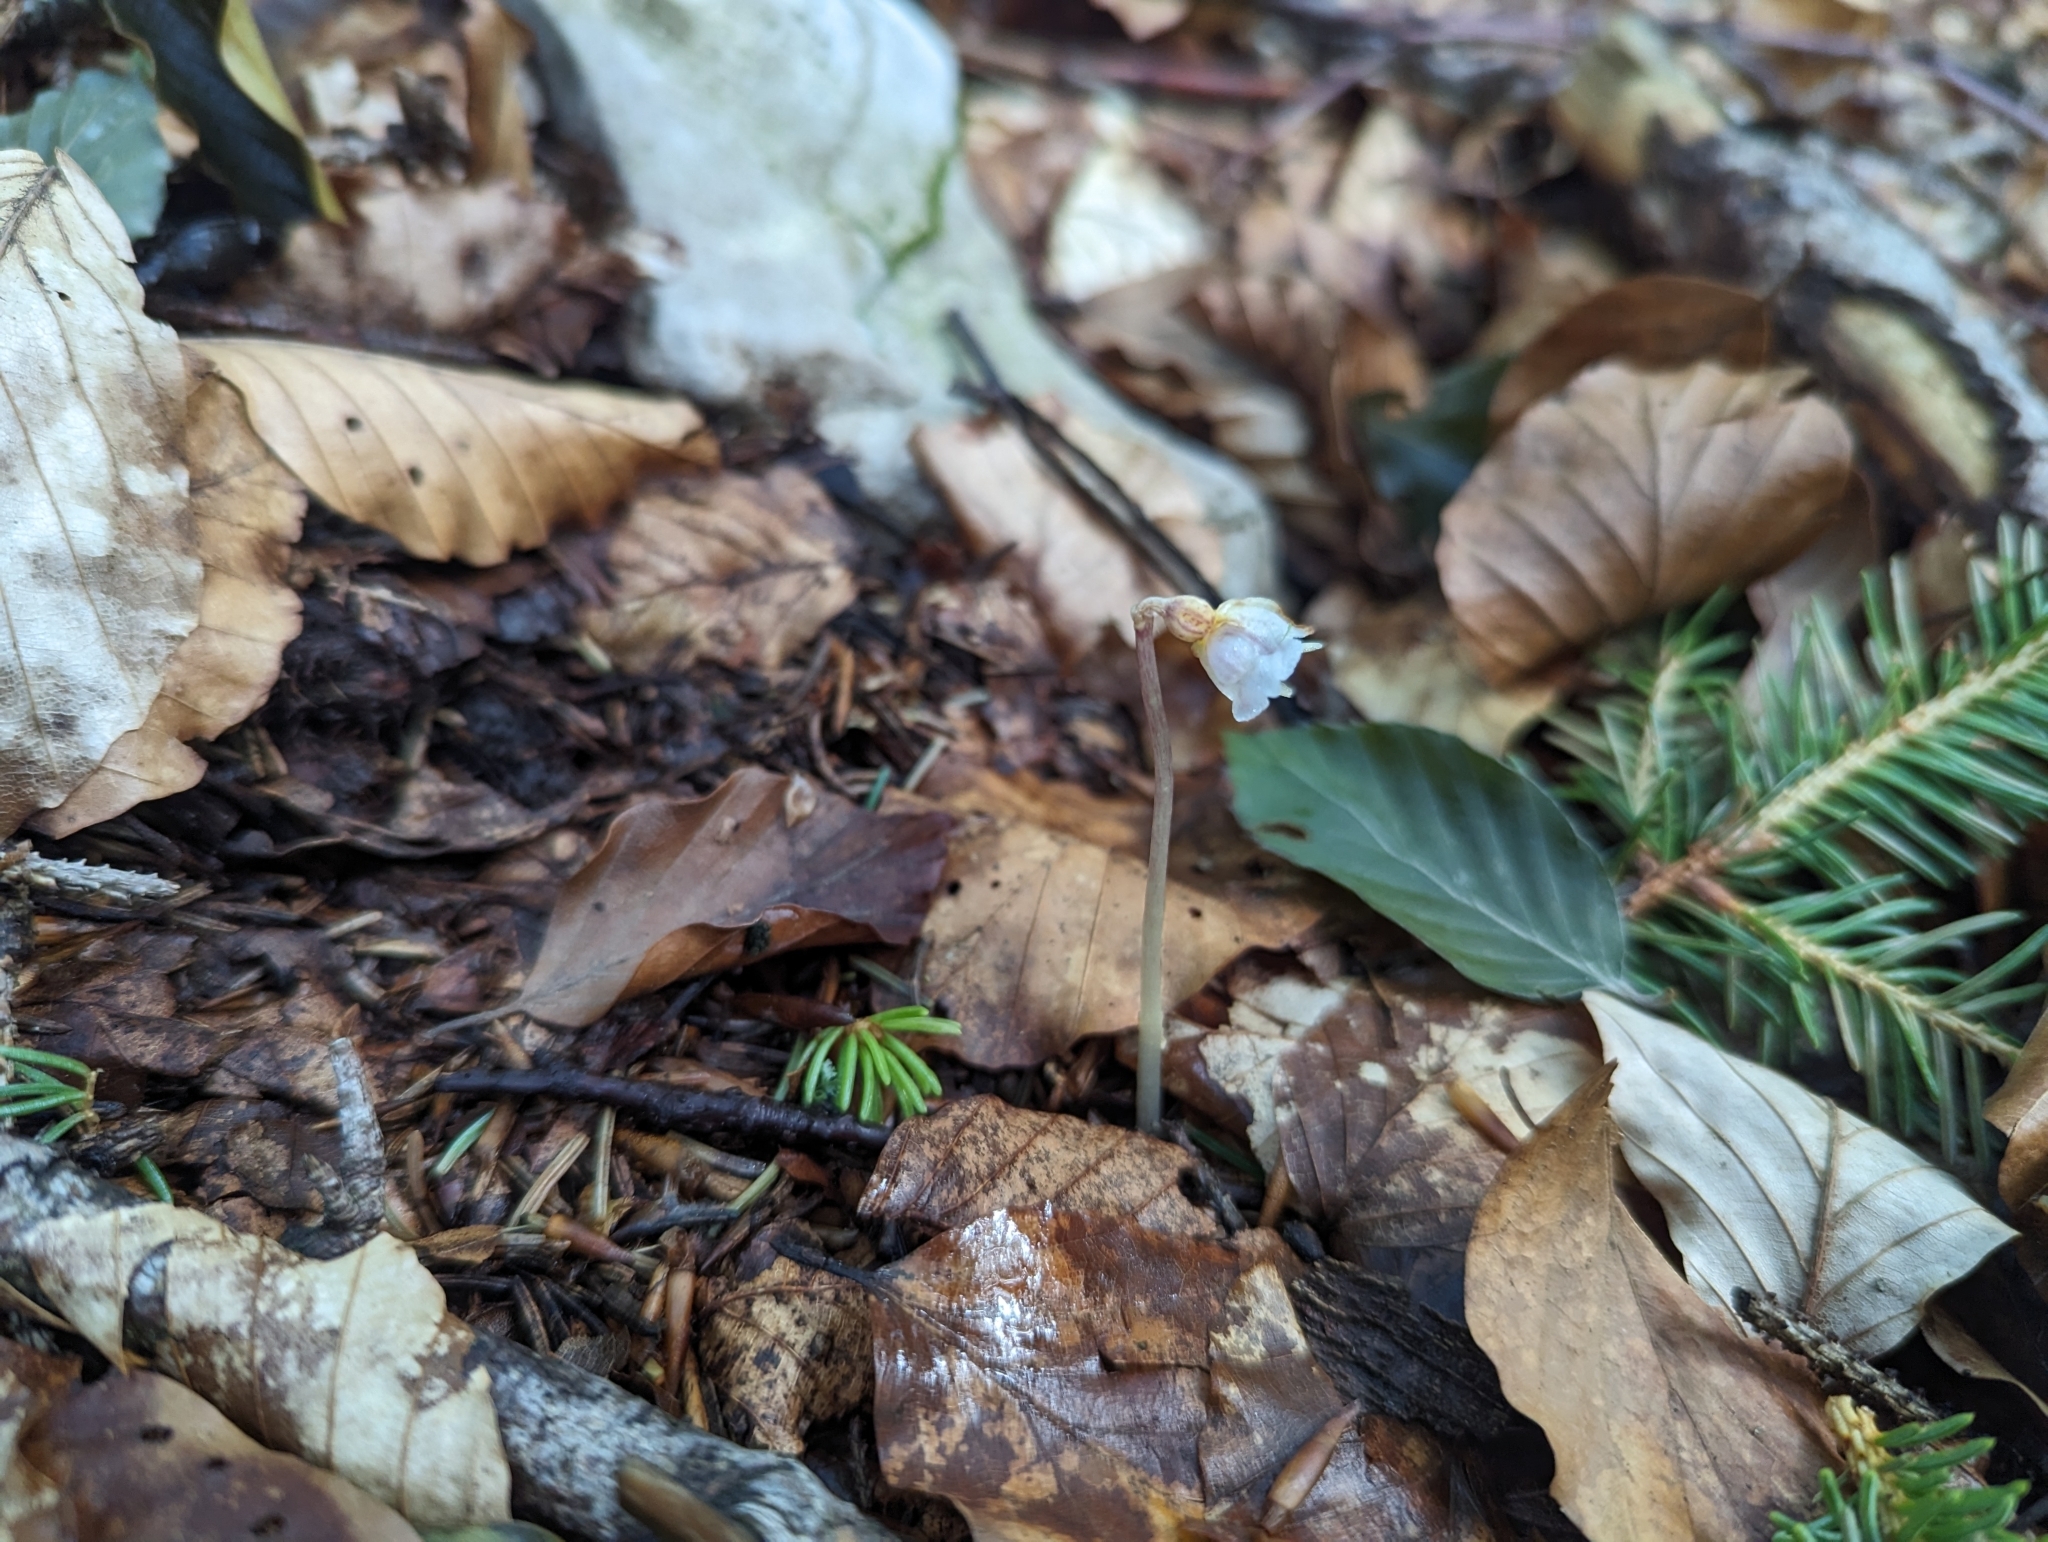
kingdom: Plantae
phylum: Tracheophyta
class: Liliopsida
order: Asparagales
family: Orchidaceae
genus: Epipogium
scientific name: Epipogium aphyllum
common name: Ghost orchid
